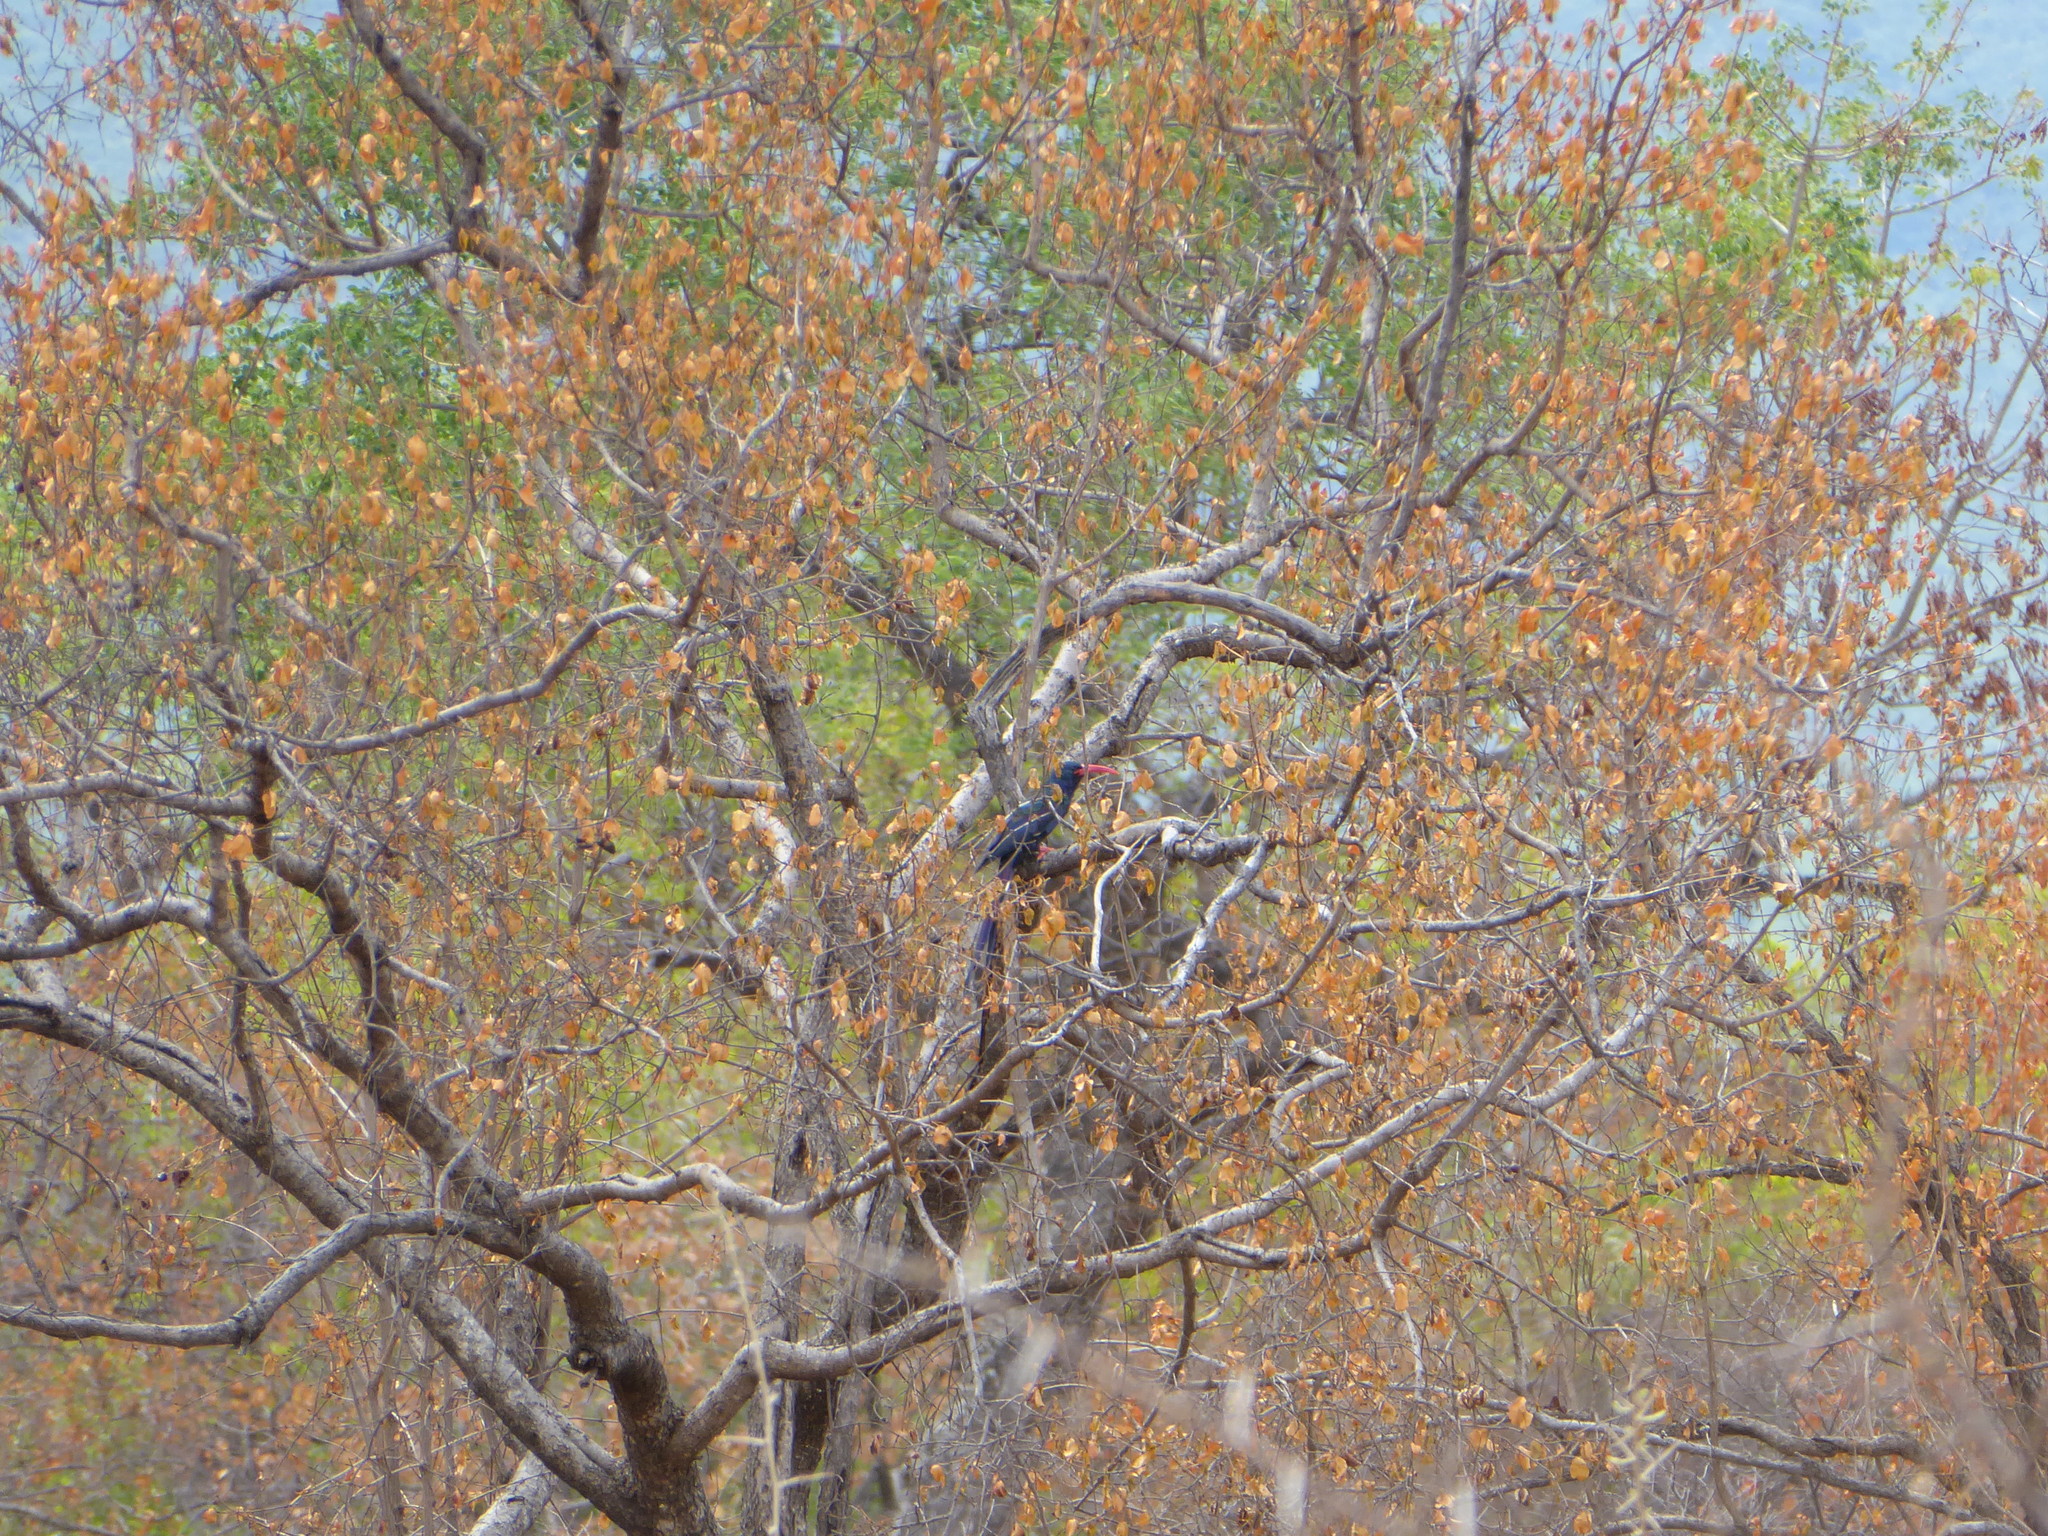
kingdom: Animalia
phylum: Chordata
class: Aves
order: Bucerotiformes
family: Phoeniculidae
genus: Phoeniculus
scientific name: Phoeniculus purpureus
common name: Green woodhoopoe
